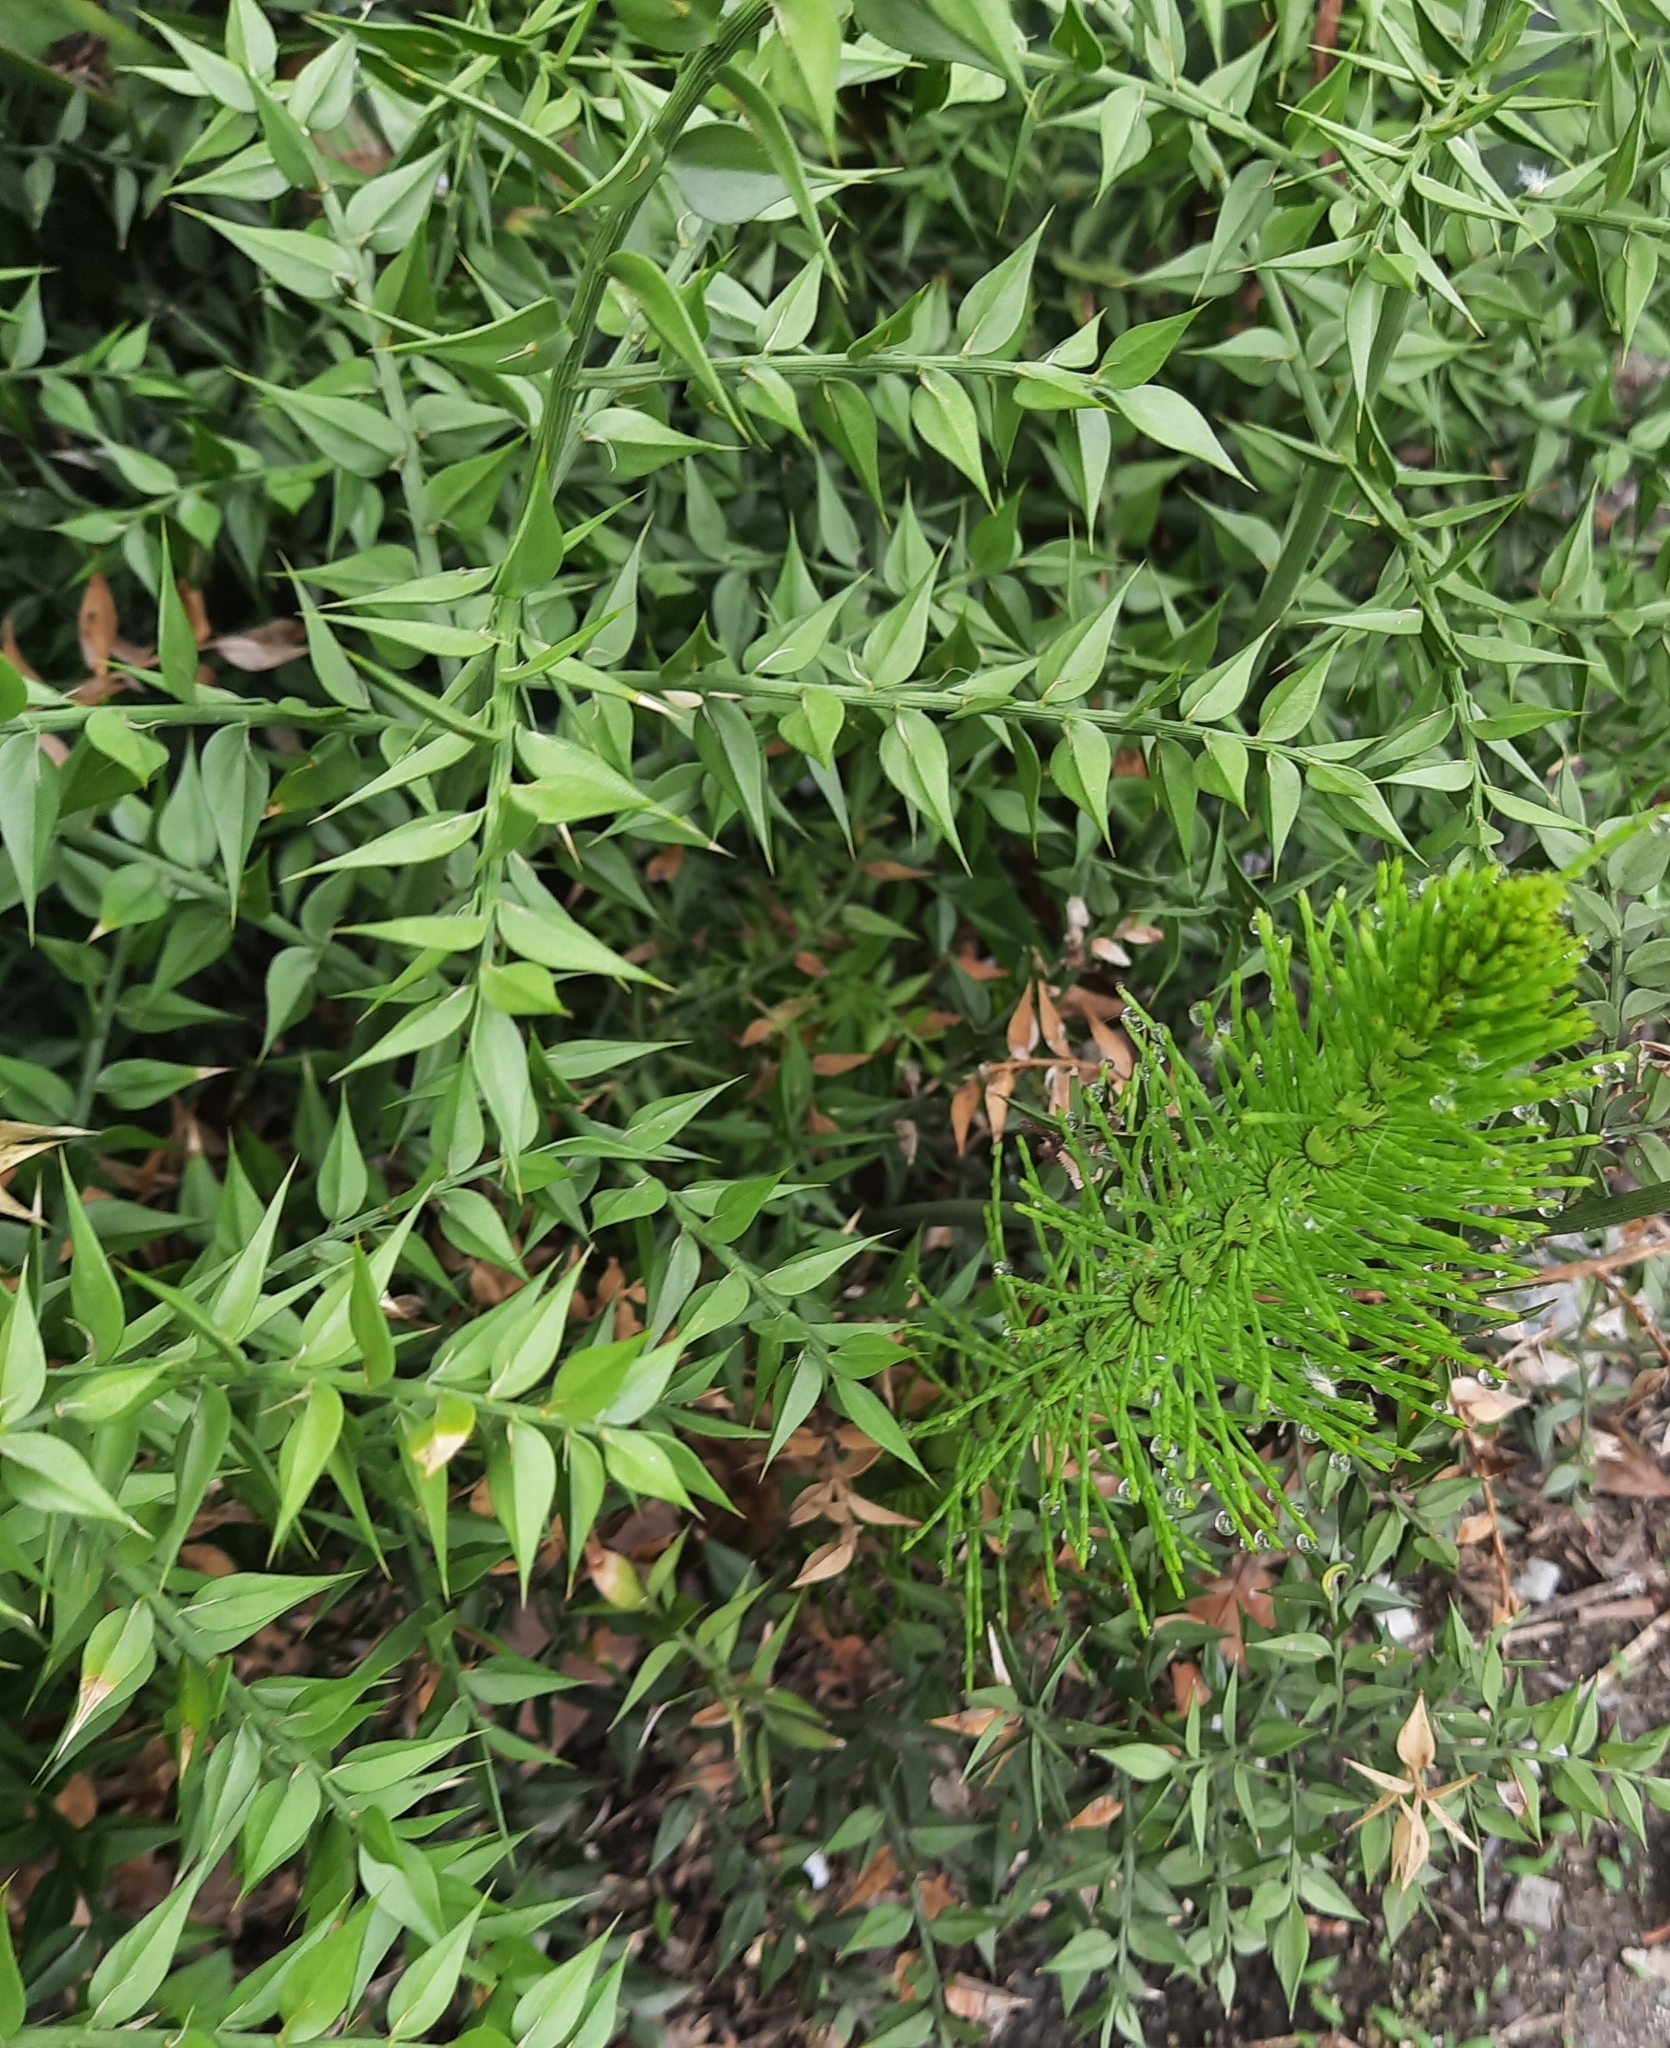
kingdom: Plantae
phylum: Tracheophyta
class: Liliopsida
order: Asparagales
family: Asparagaceae
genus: Ruscus
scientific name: Ruscus aculeatus
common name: Butcher's-broom
